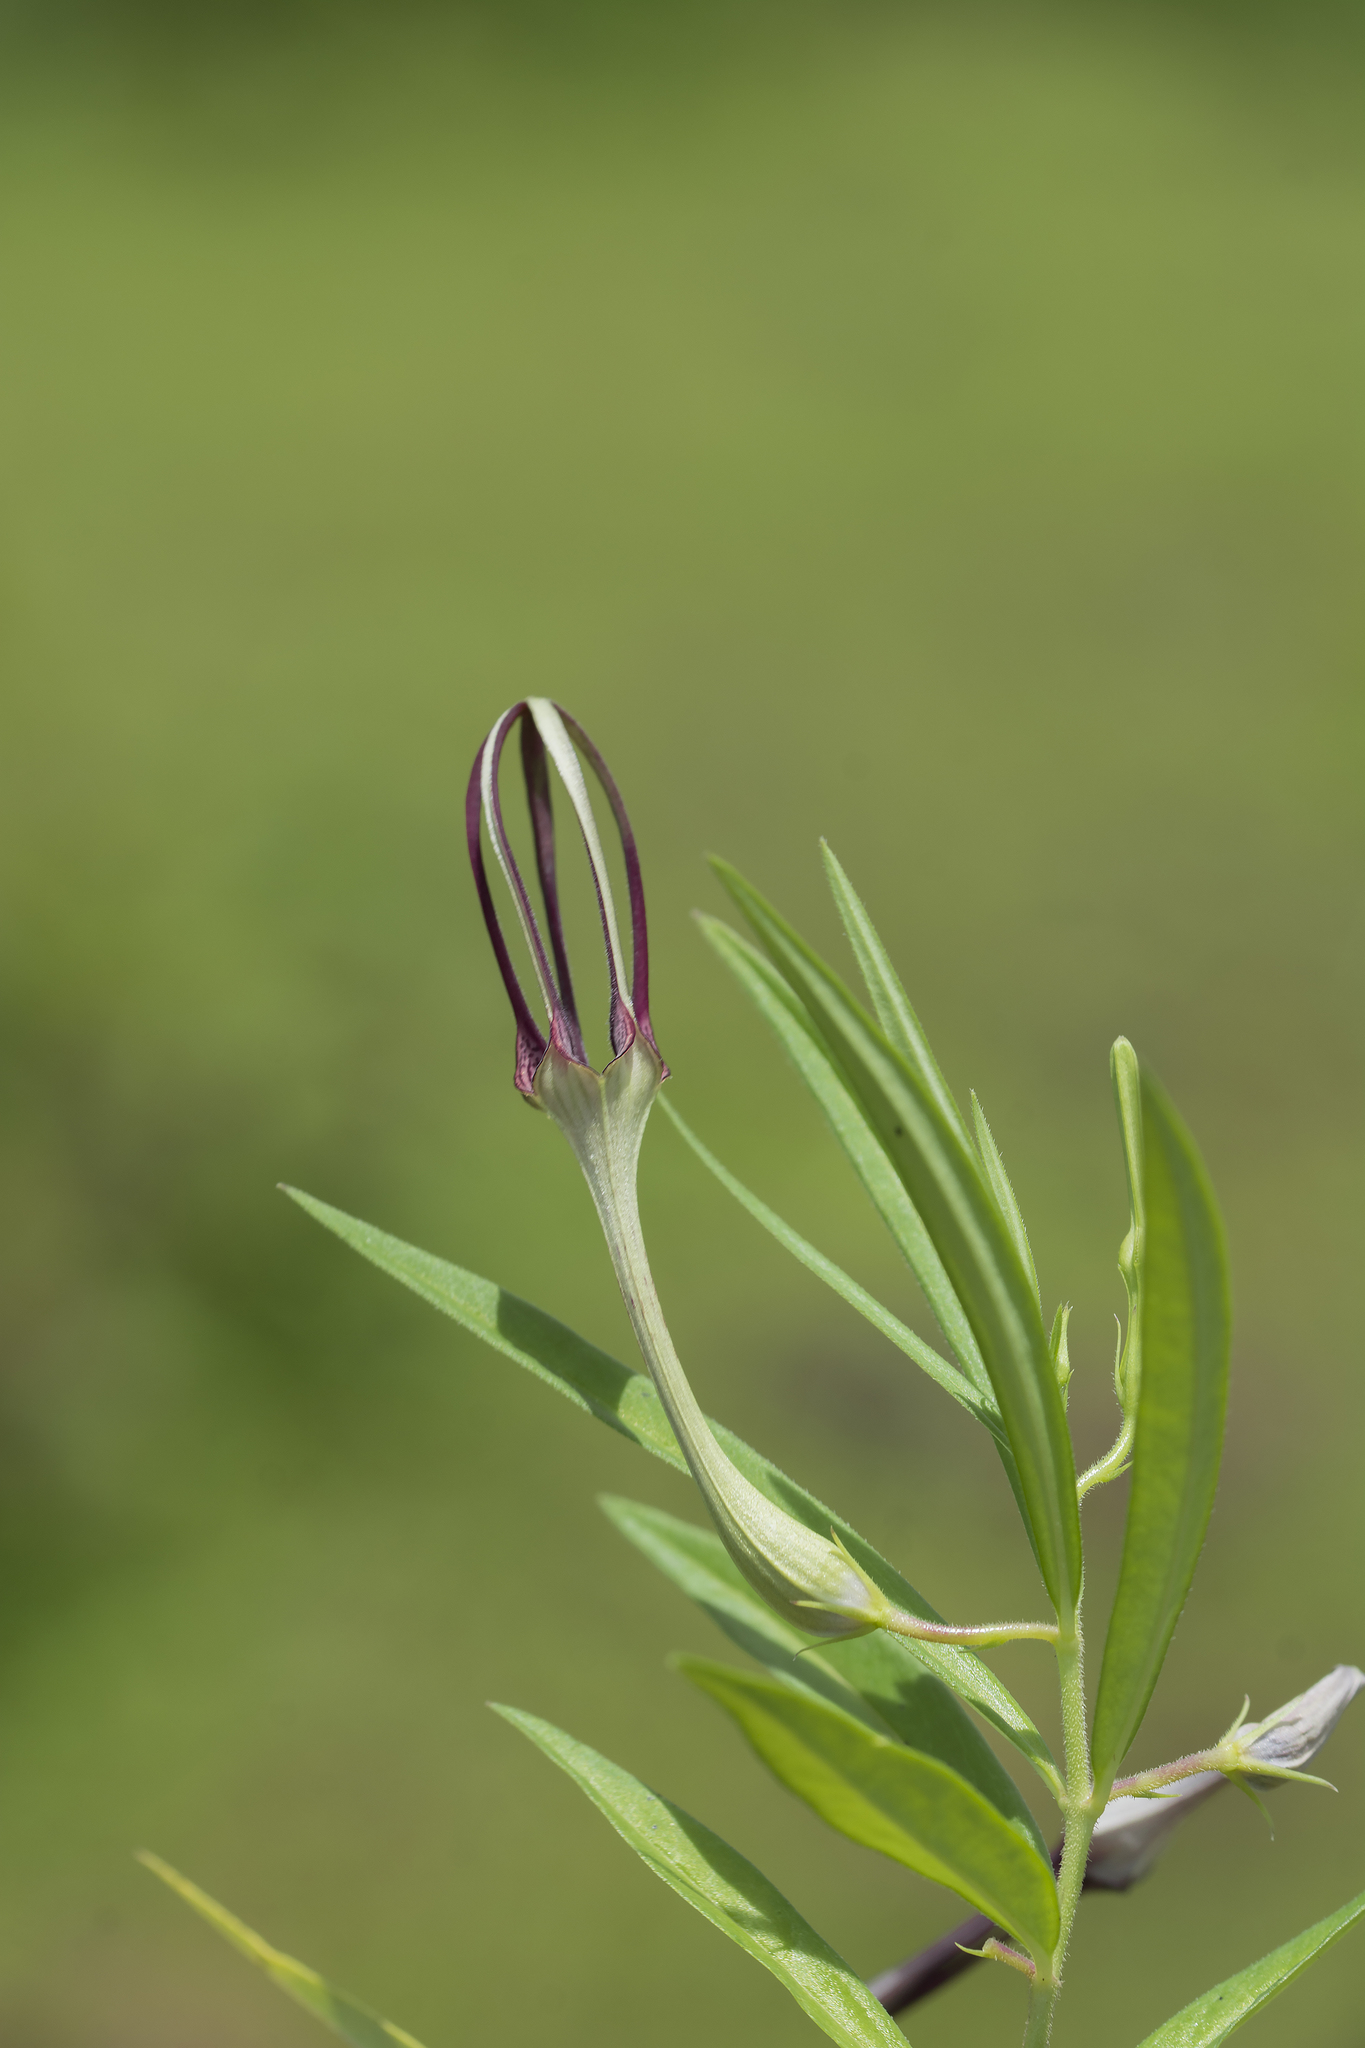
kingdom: Plantae
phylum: Tracheophyta
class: Magnoliopsida
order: Gentianales
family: Apocynaceae
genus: Ceropegia
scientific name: Ceropegia attenuata
